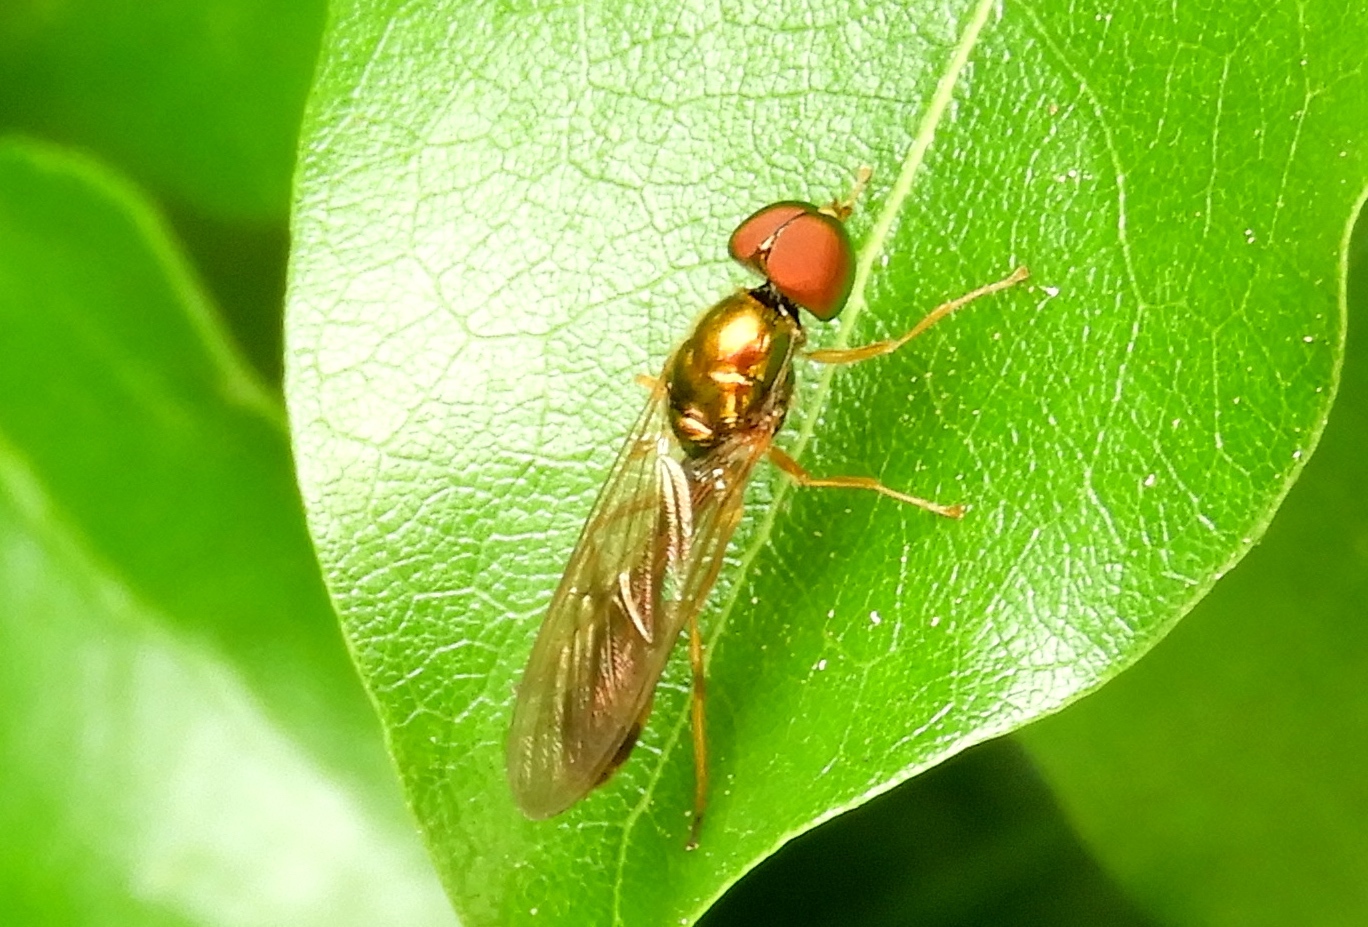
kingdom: Animalia
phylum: Arthropoda
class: Insecta
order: Diptera
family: Stratiomyidae
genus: Sargus
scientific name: Sargus fasciatus
